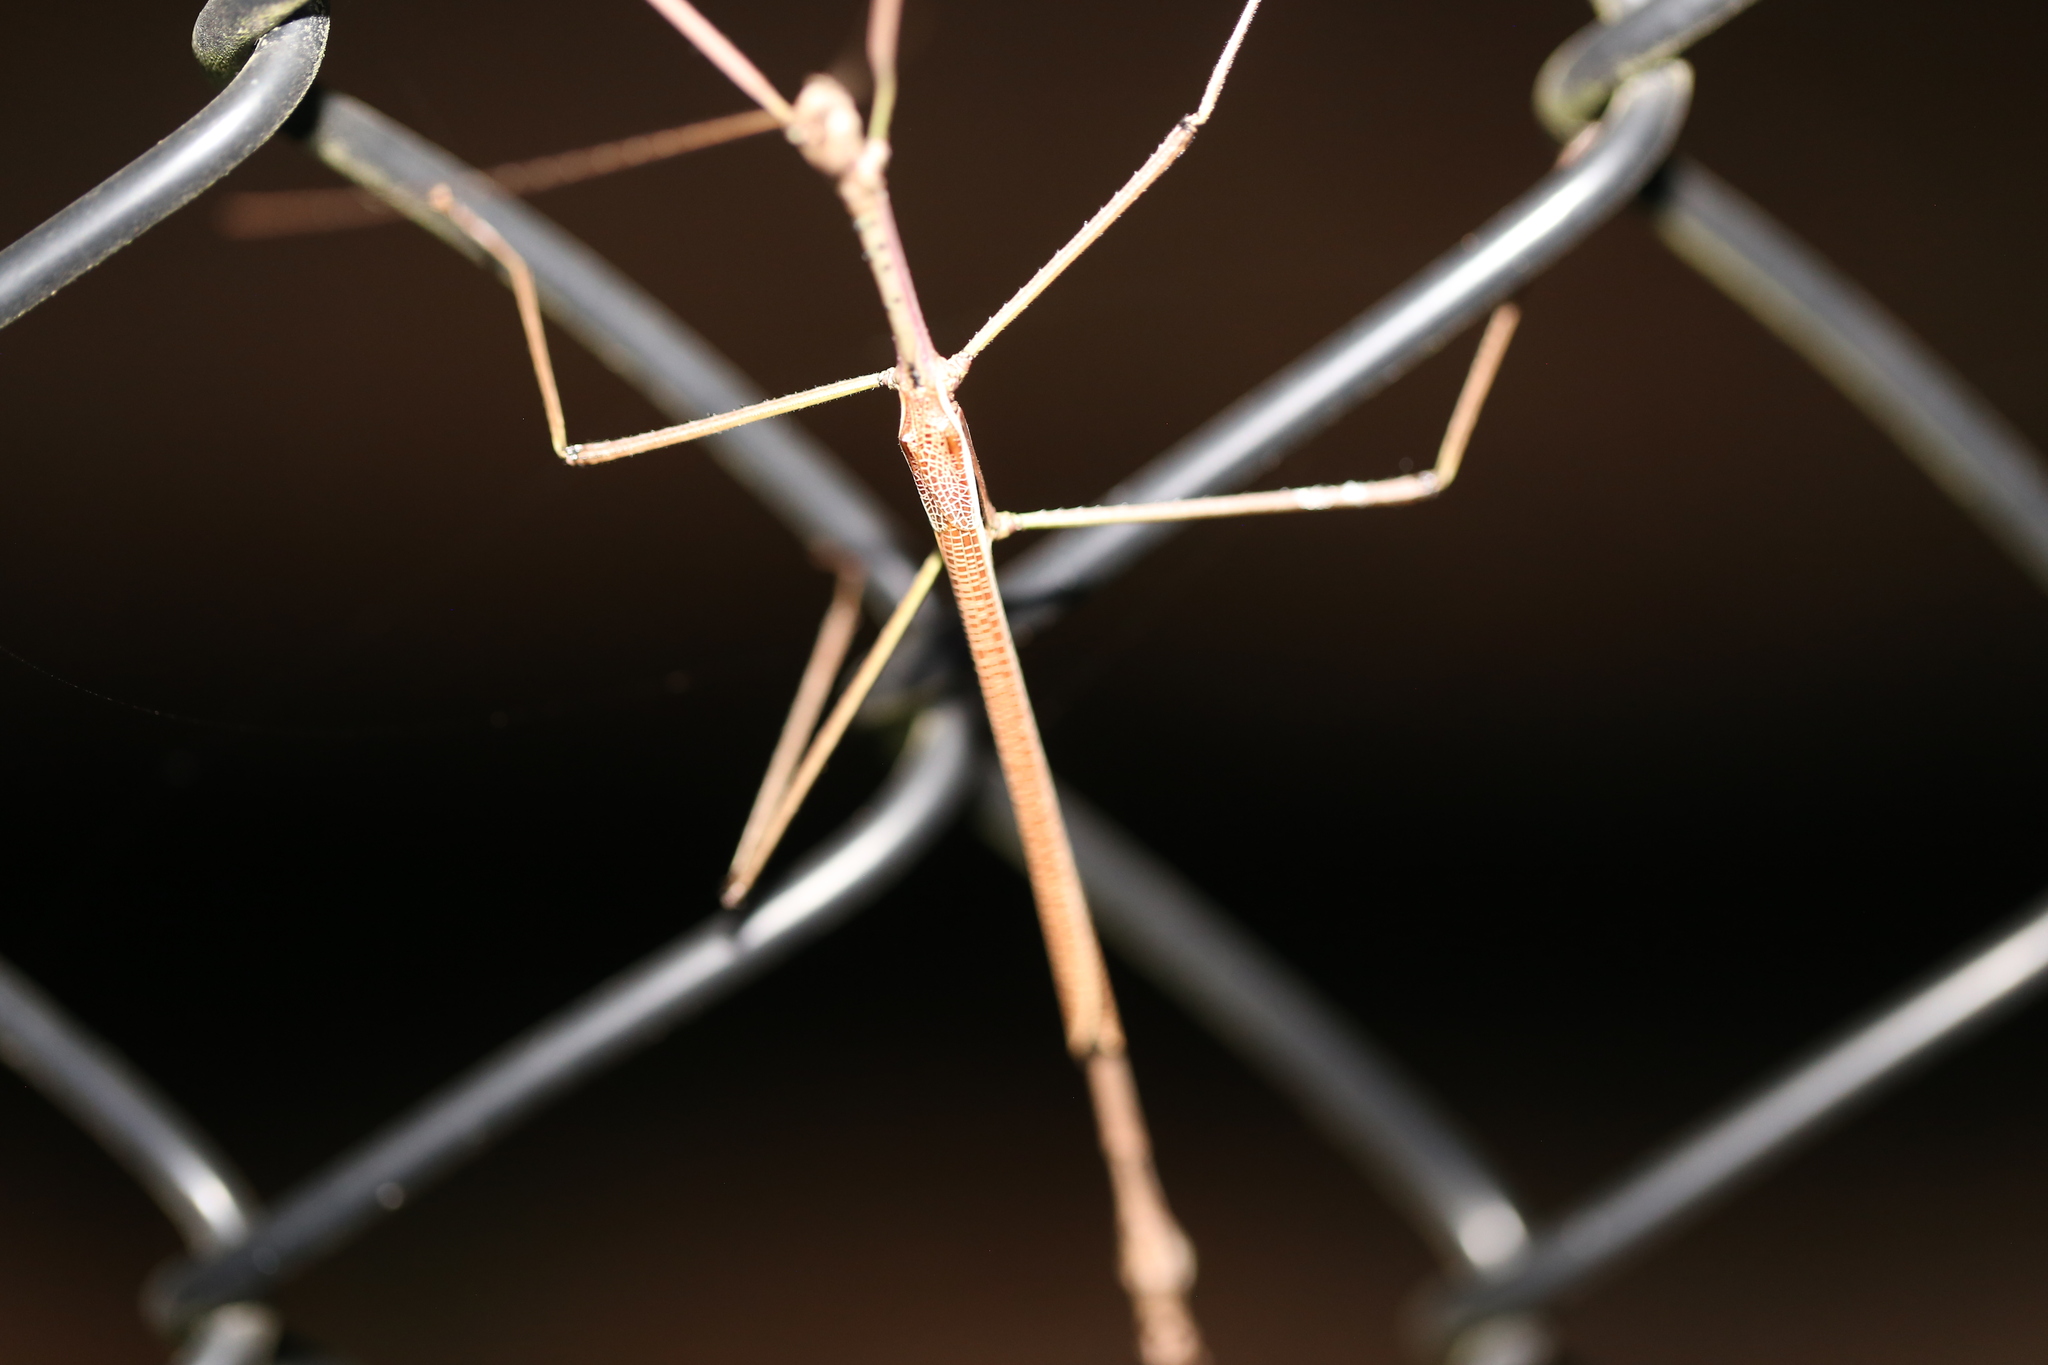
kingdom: Animalia
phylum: Arthropoda
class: Insecta
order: Phasmida
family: Phasmatidae
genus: Anchiale
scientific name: Anchiale austrotessulata
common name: Tessellated stick-insect
